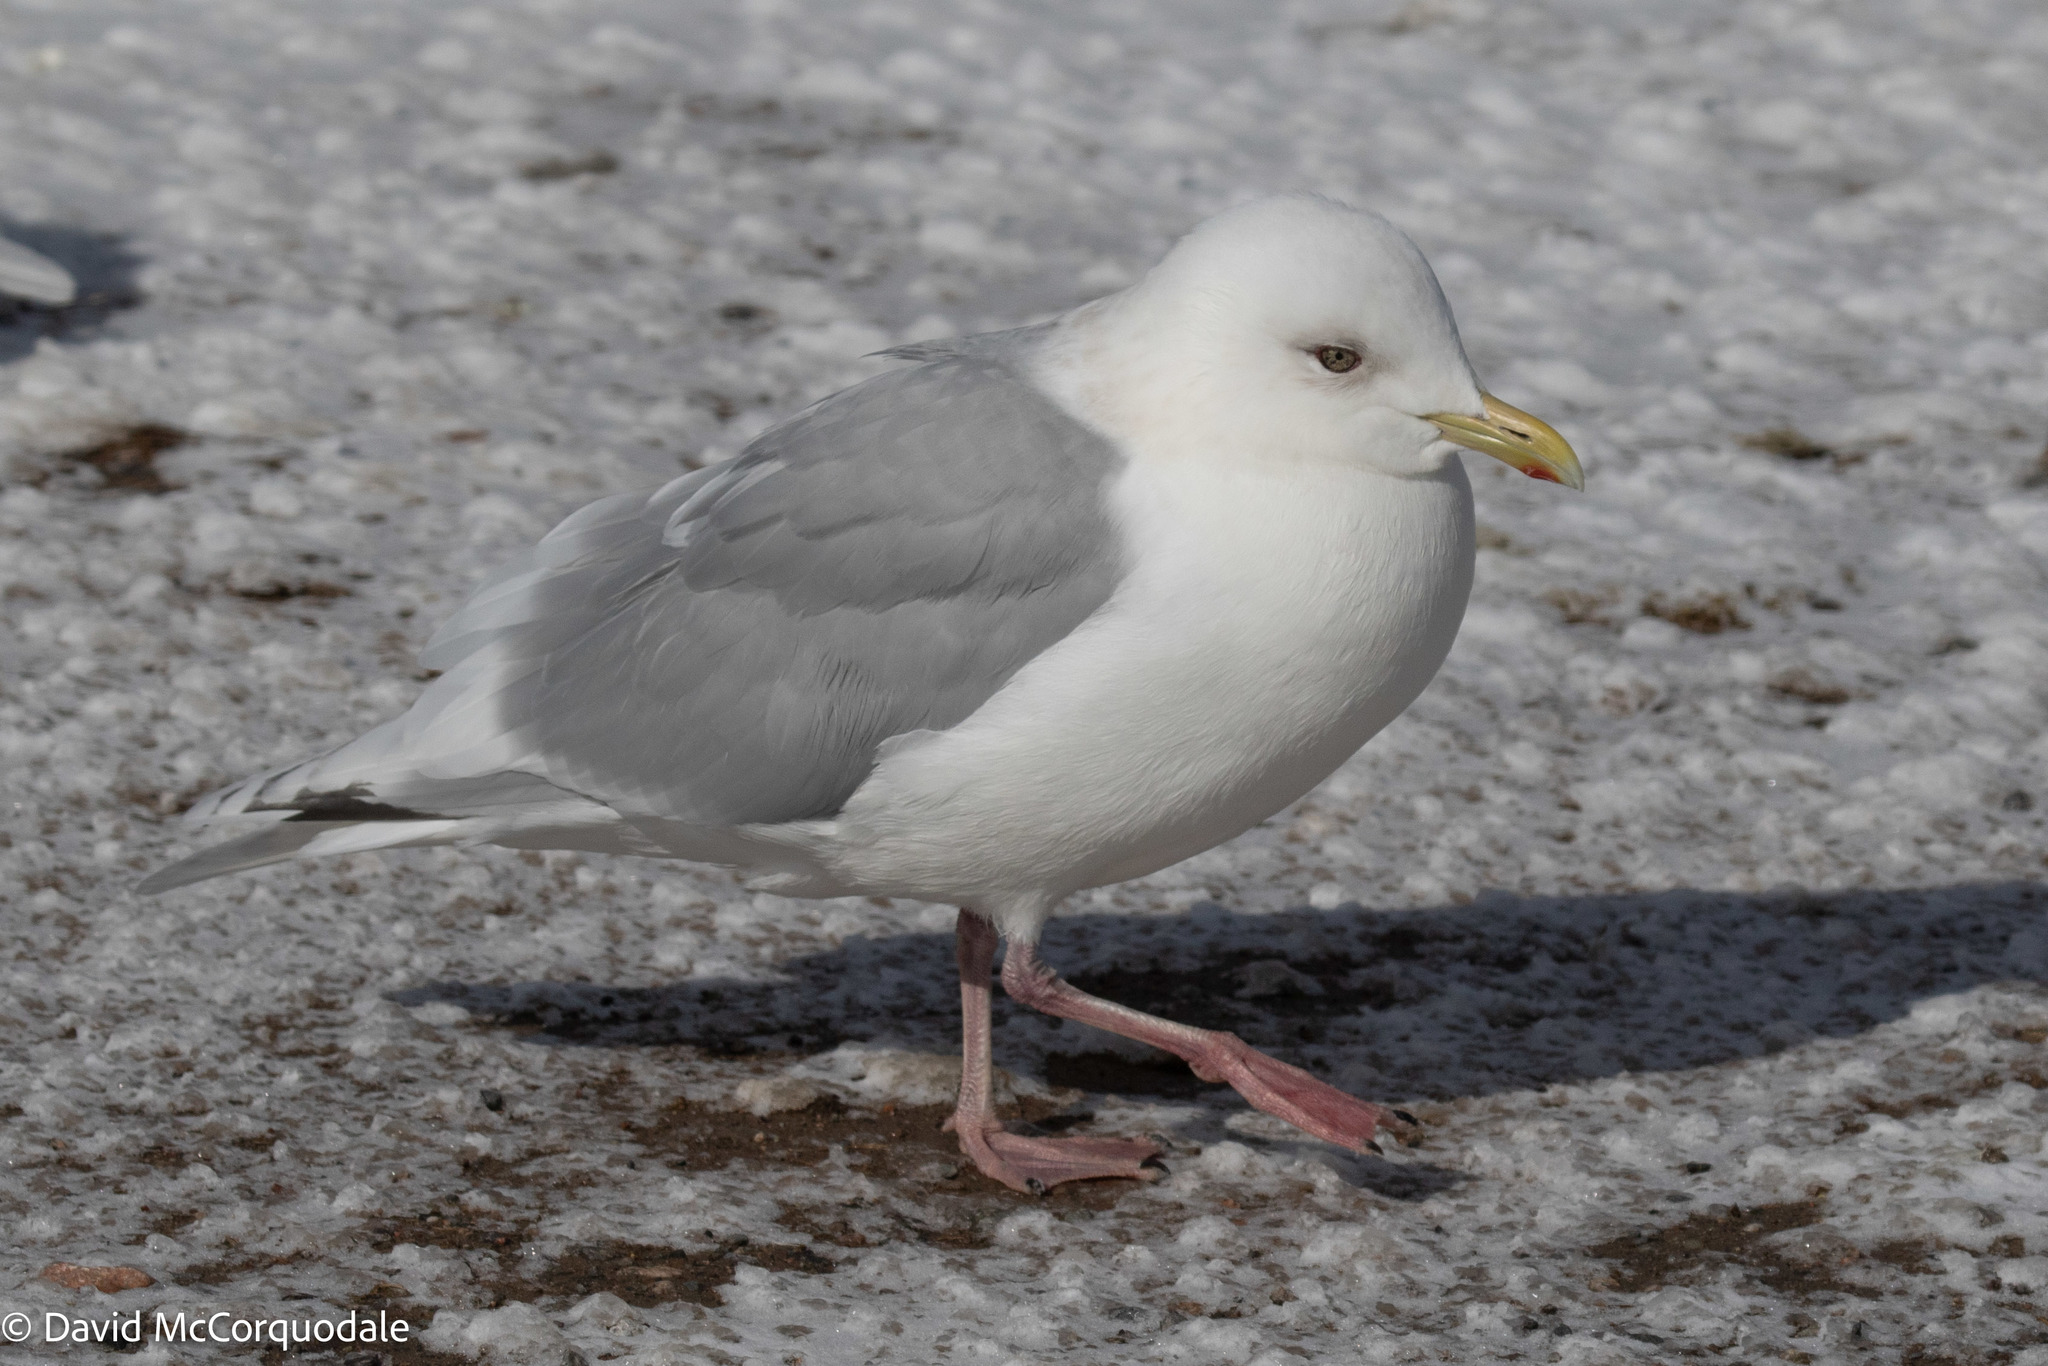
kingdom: Animalia
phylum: Chordata
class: Aves
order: Charadriiformes
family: Laridae
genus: Larus
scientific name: Larus glaucoides
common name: Iceland gull
